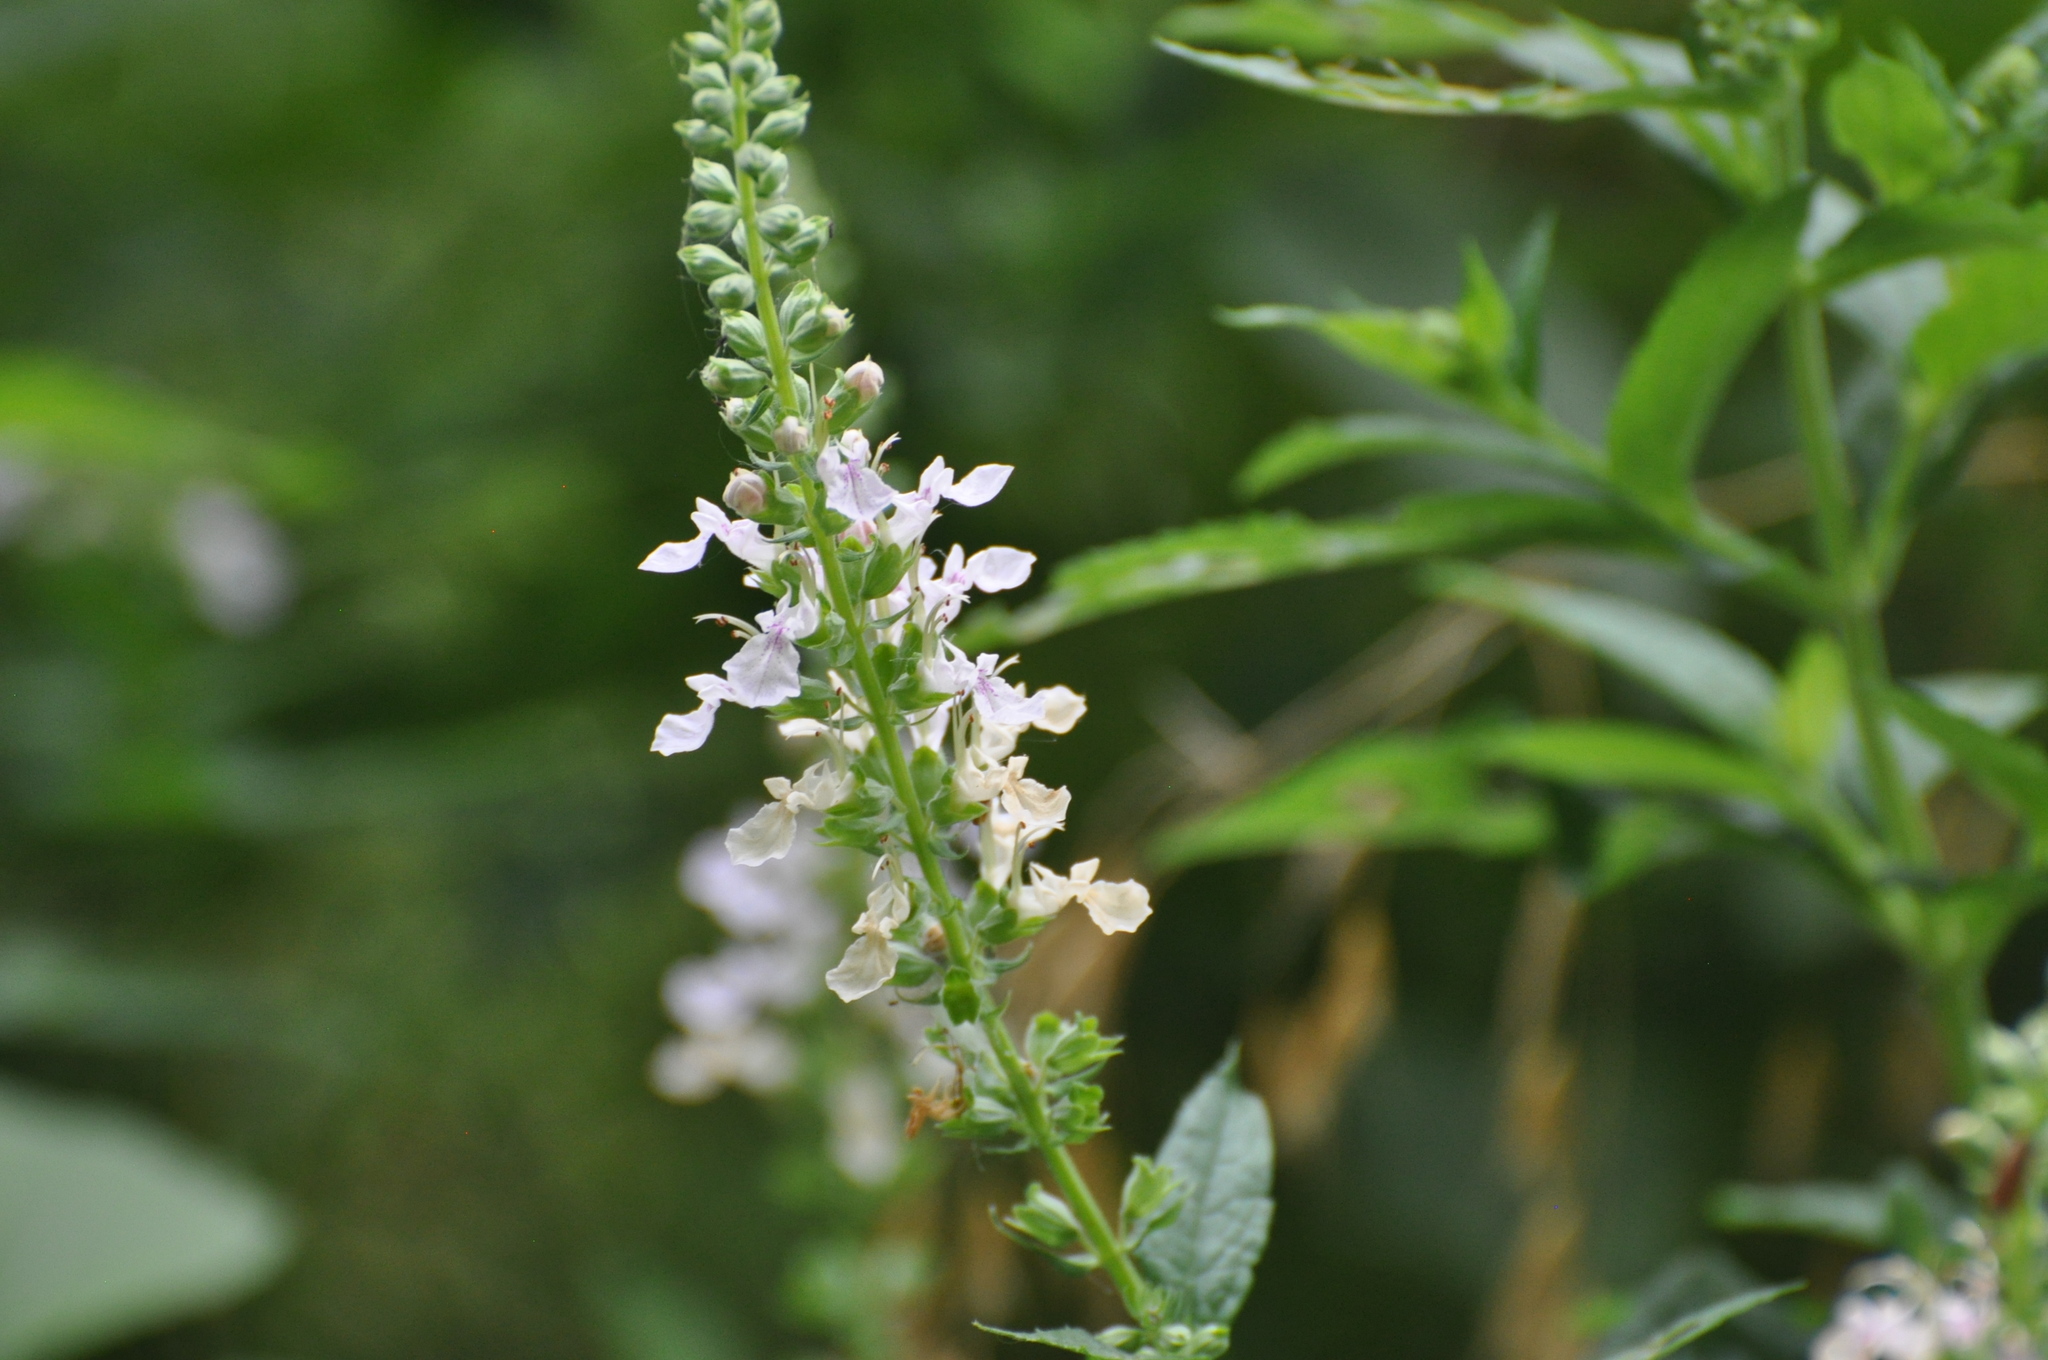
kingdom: Plantae
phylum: Tracheophyta
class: Magnoliopsida
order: Lamiales
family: Lamiaceae
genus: Teucrium
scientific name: Teucrium canadense
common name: American germander
